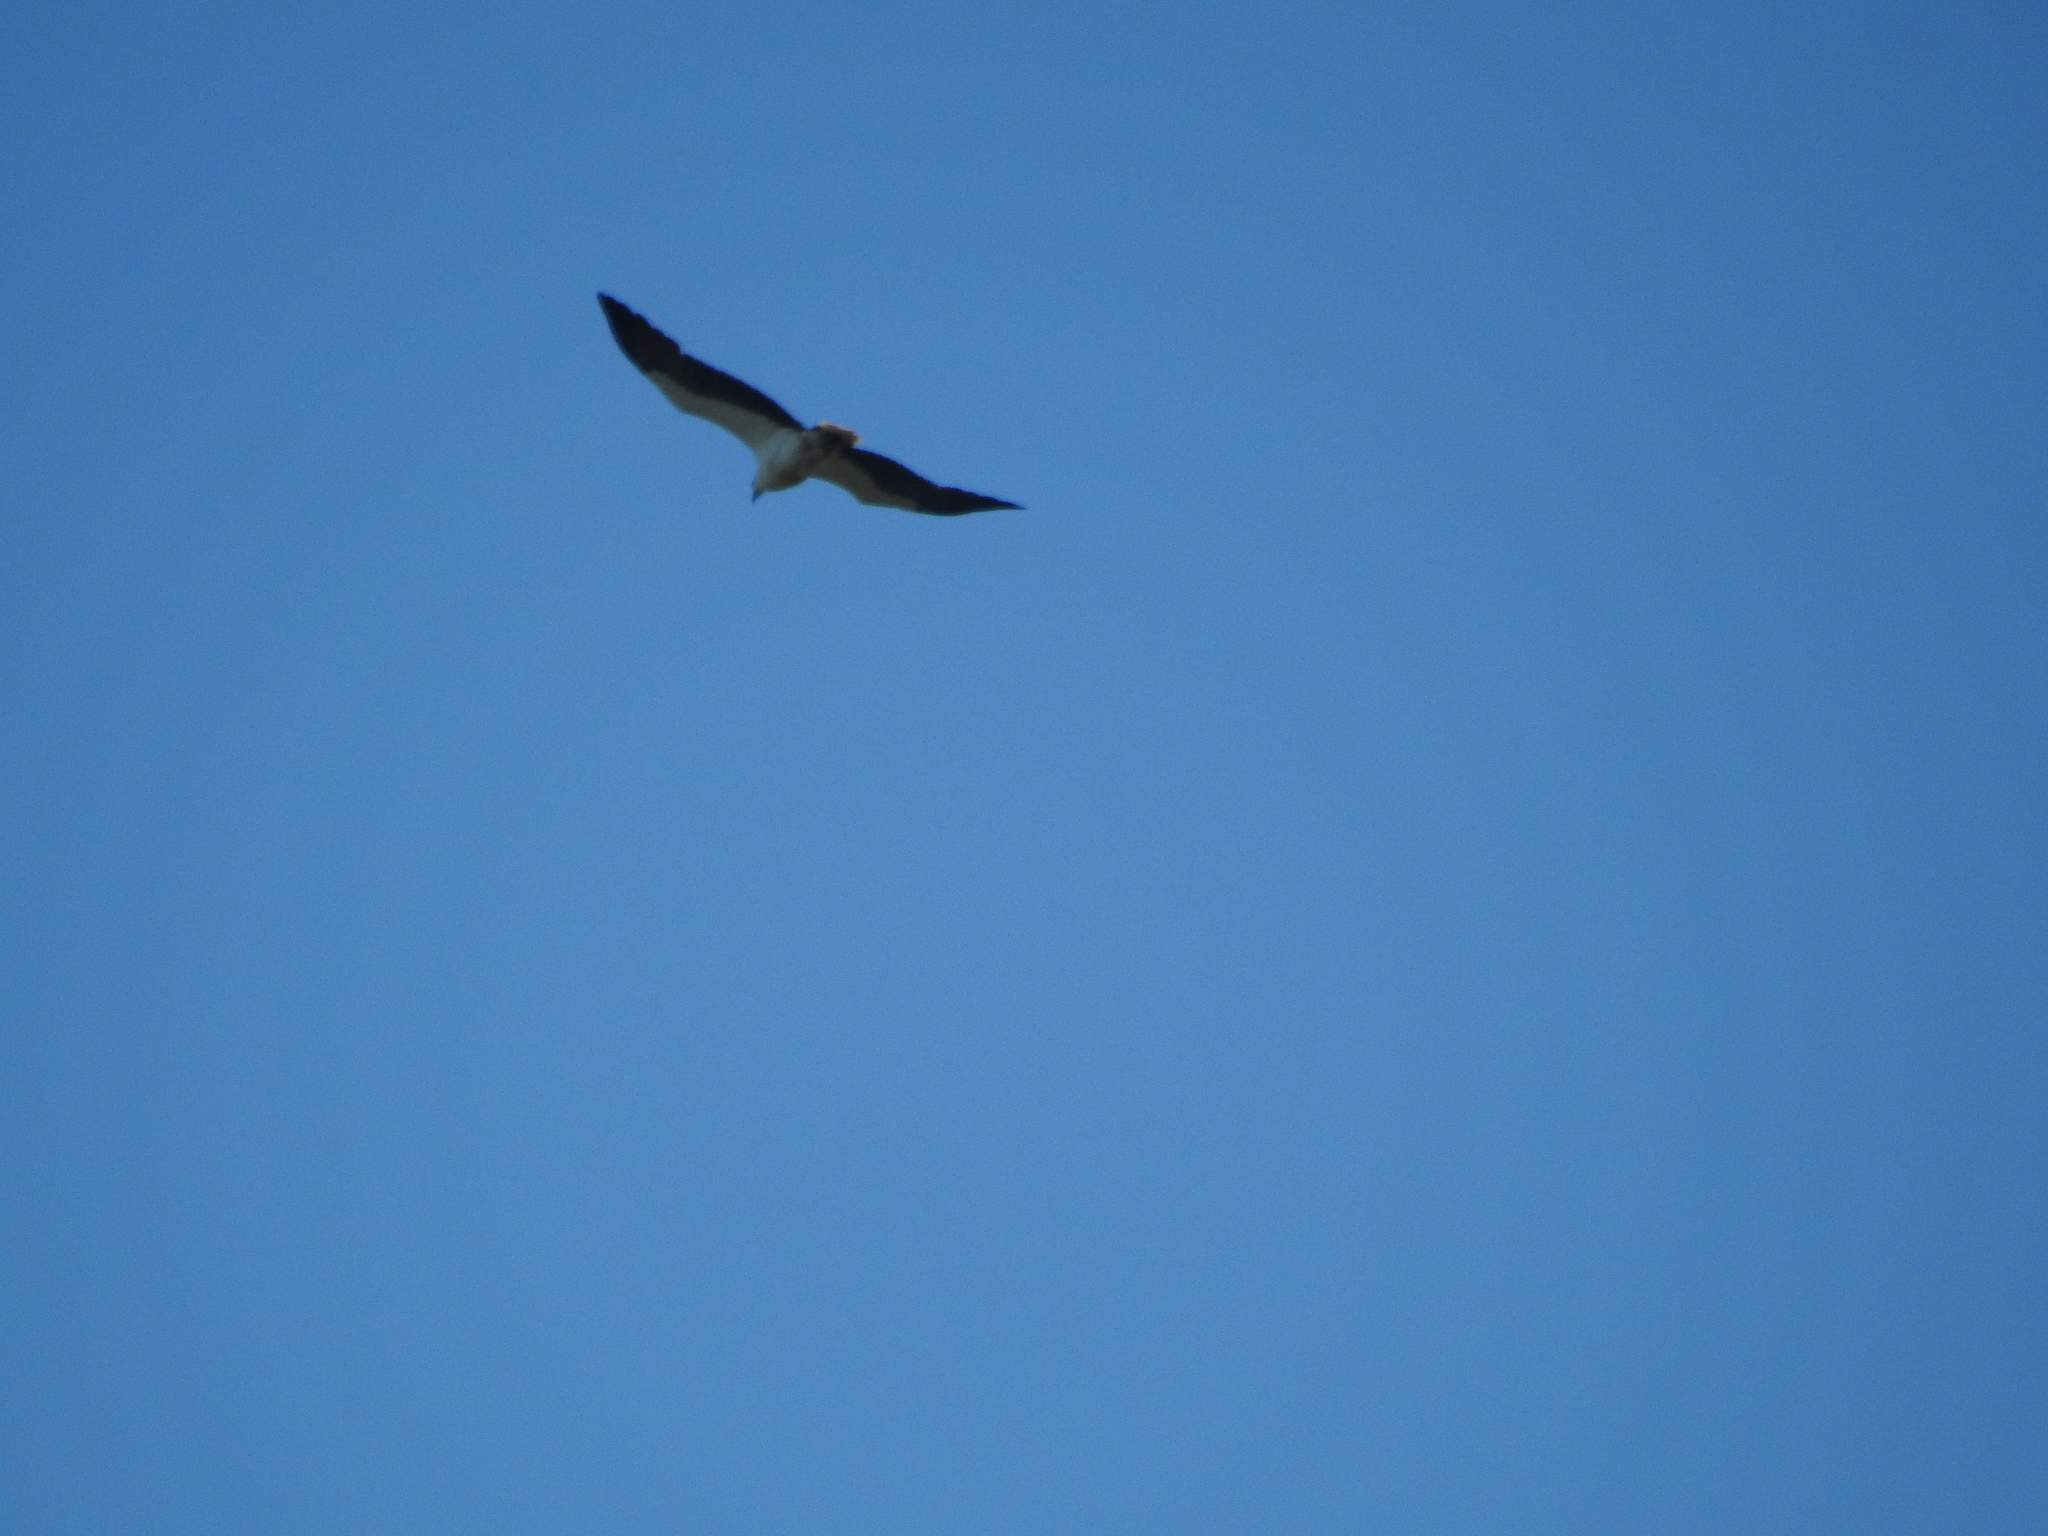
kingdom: Animalia
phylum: Chordata
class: Aves
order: Accipitriformes
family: Accipitridae
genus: Haliaeetus
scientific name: Haliaeetus leucogaster
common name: White-bellied sea eagle
